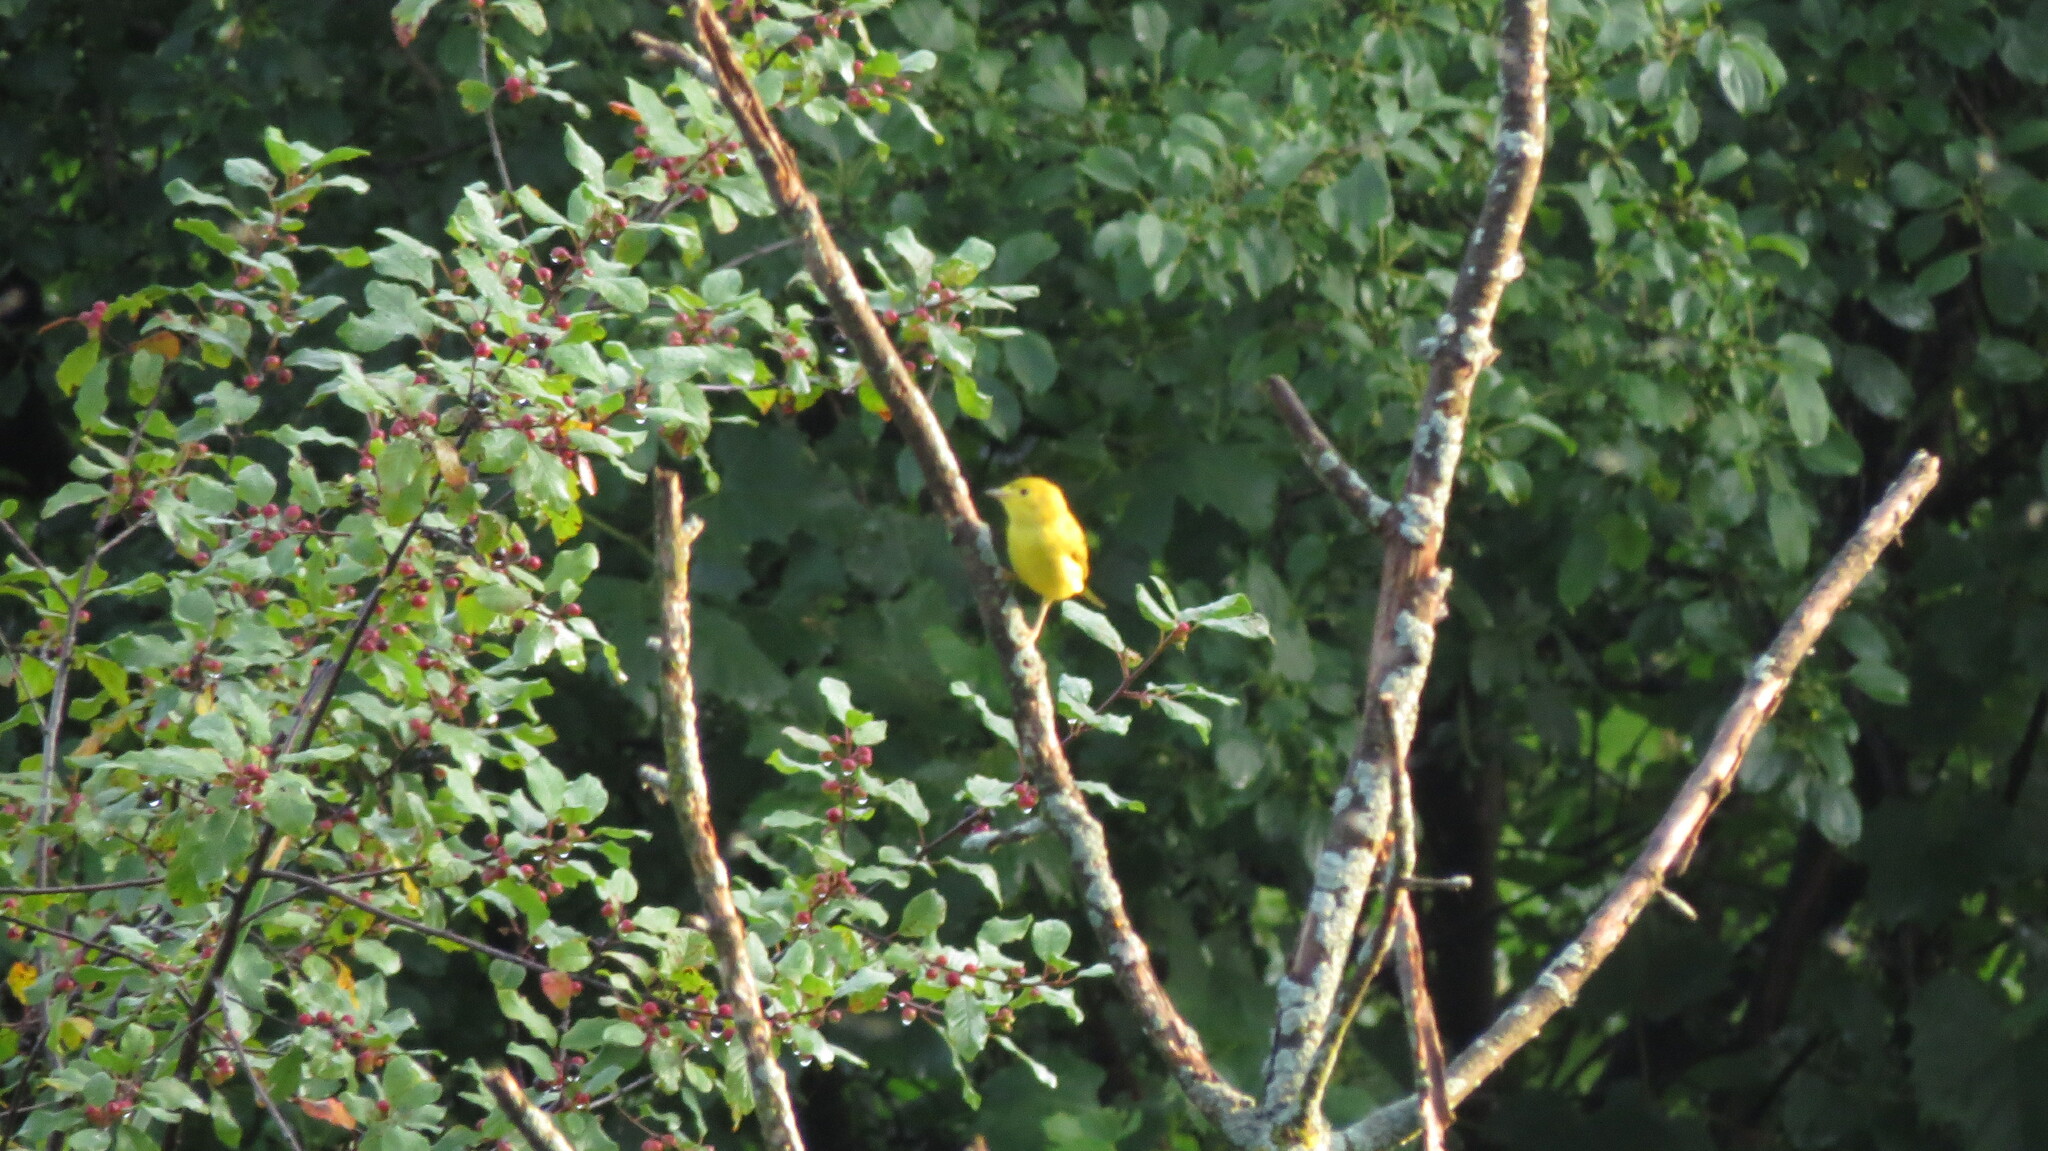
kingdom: Animalia
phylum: Chordata
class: Aves
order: Passeriformes
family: Parulidae
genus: Setophaga
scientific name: Setophaga petechia
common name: Yellow warbler
